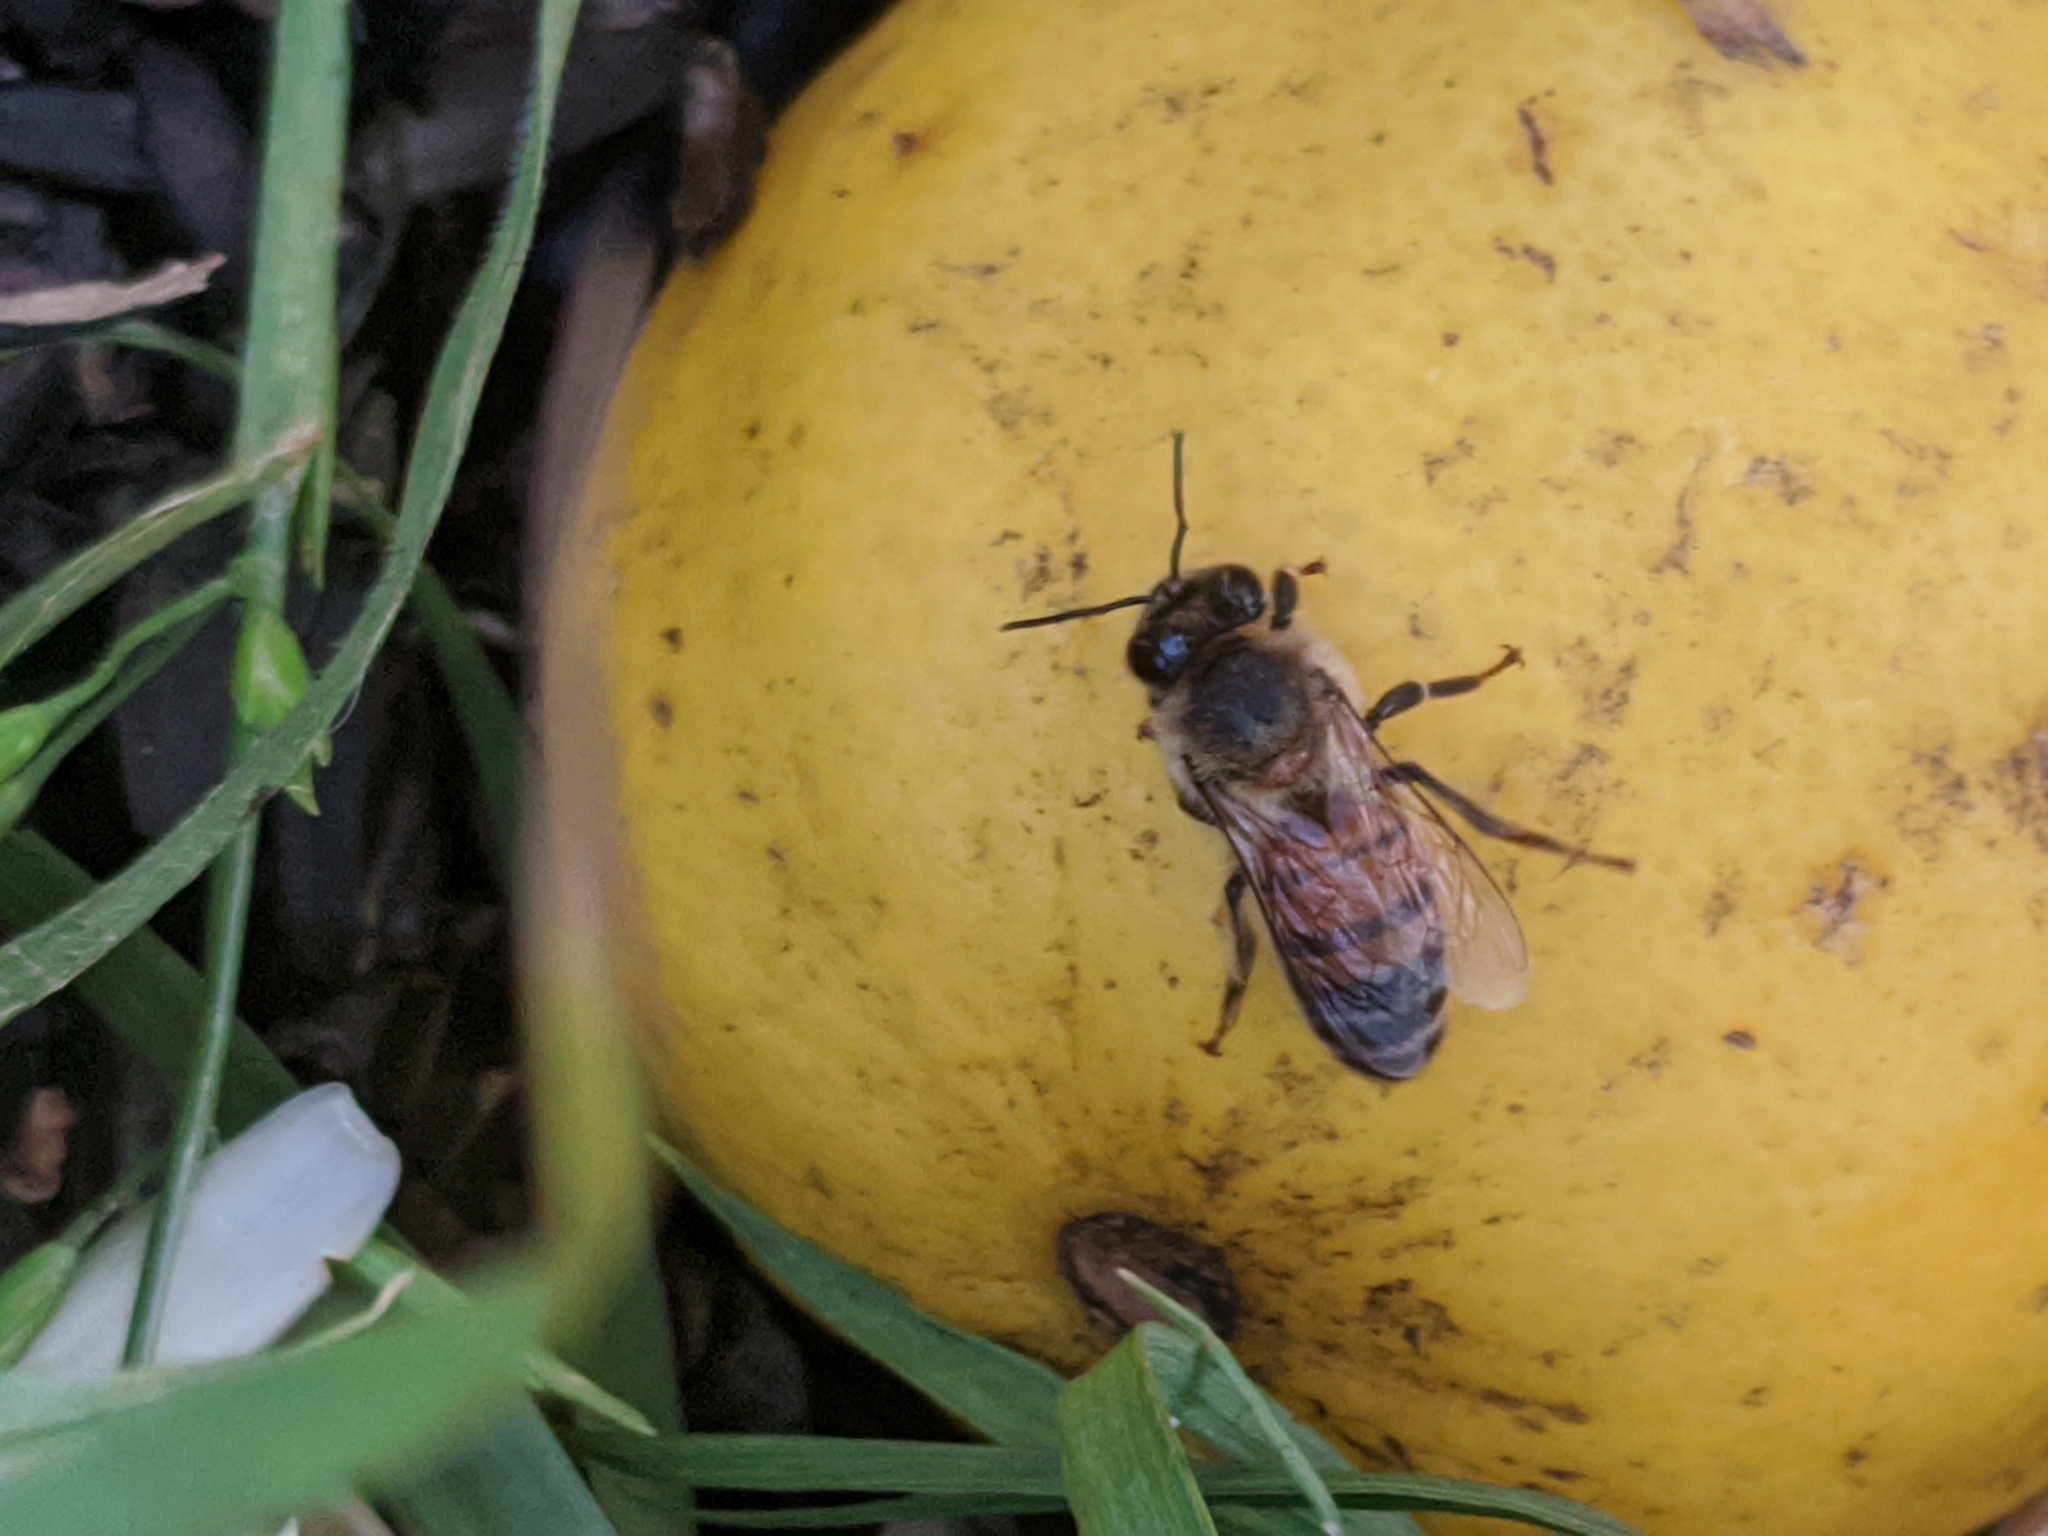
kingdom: Animalia
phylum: Arthropoda
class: Insecta
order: Hymenoptera
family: Apidae
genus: Apis
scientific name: Apis mellifera
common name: Honey bee
